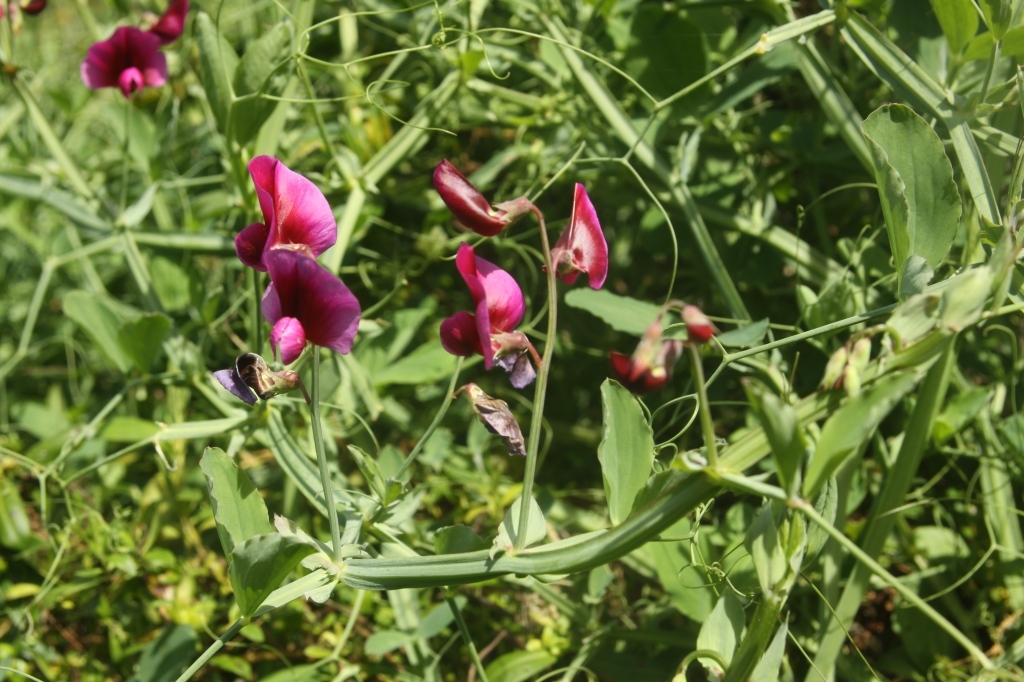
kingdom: Plantae
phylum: Tracheophyta
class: Magnoliopsida
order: Lamiales
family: Plantaginaceae
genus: Veronica
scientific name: Veronica stricta
